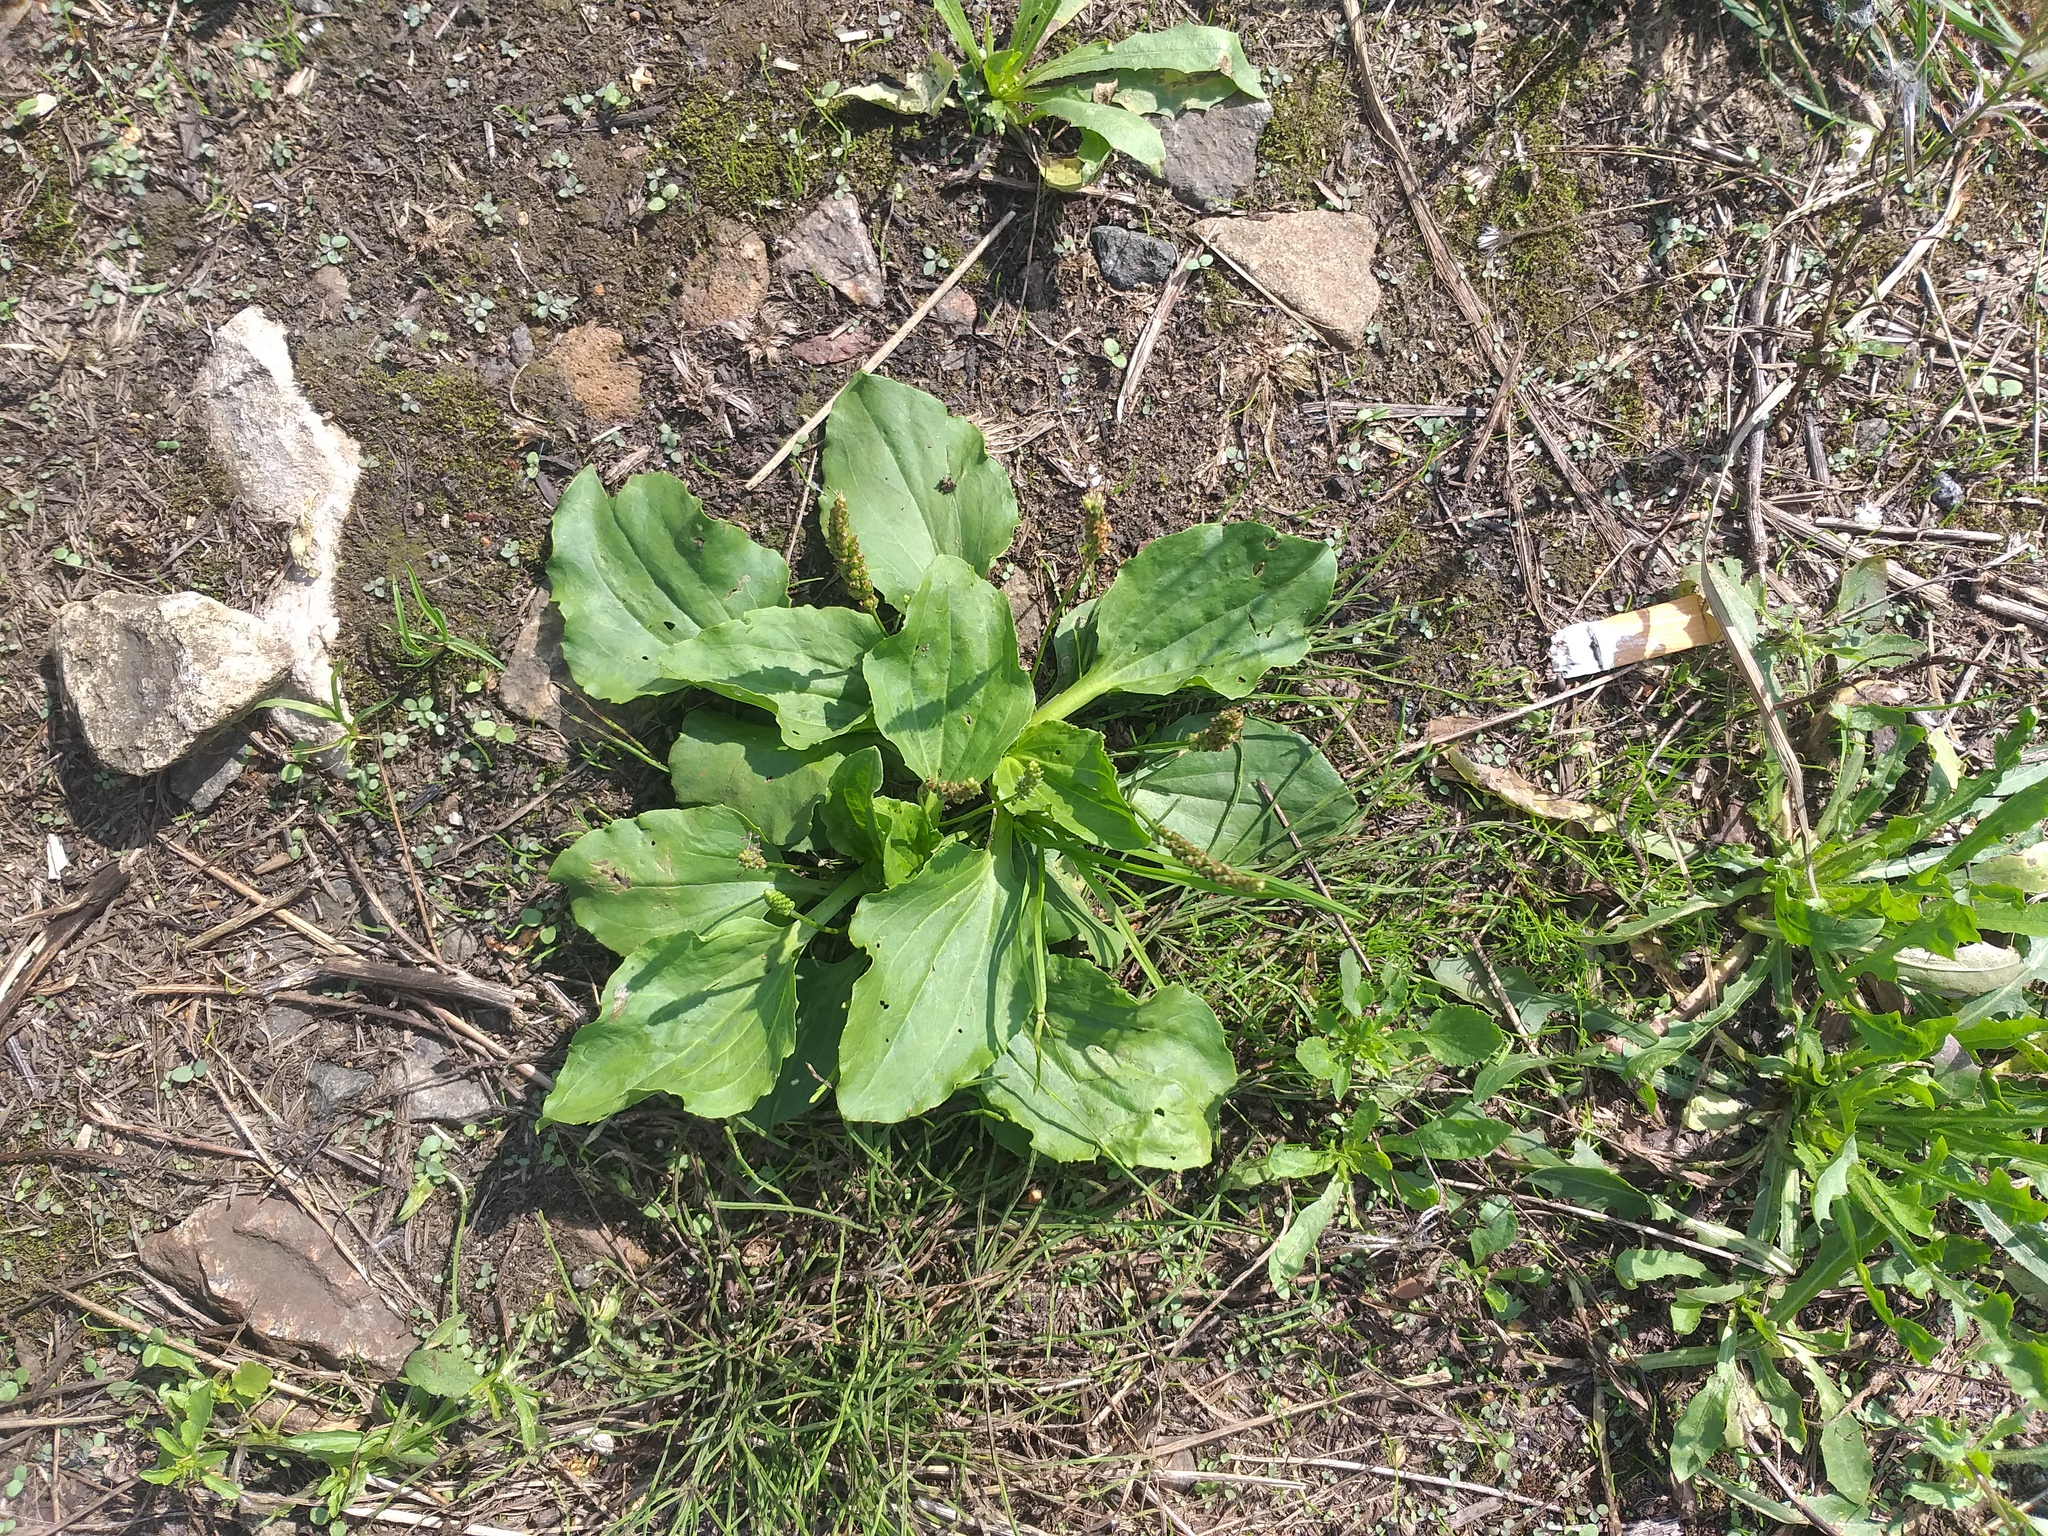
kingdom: Plantae
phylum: Tracheophyta
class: Magnoliopsida
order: Lamiales
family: Plantaginaceae
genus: Plantago
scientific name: Plantago major
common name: Common plantain
